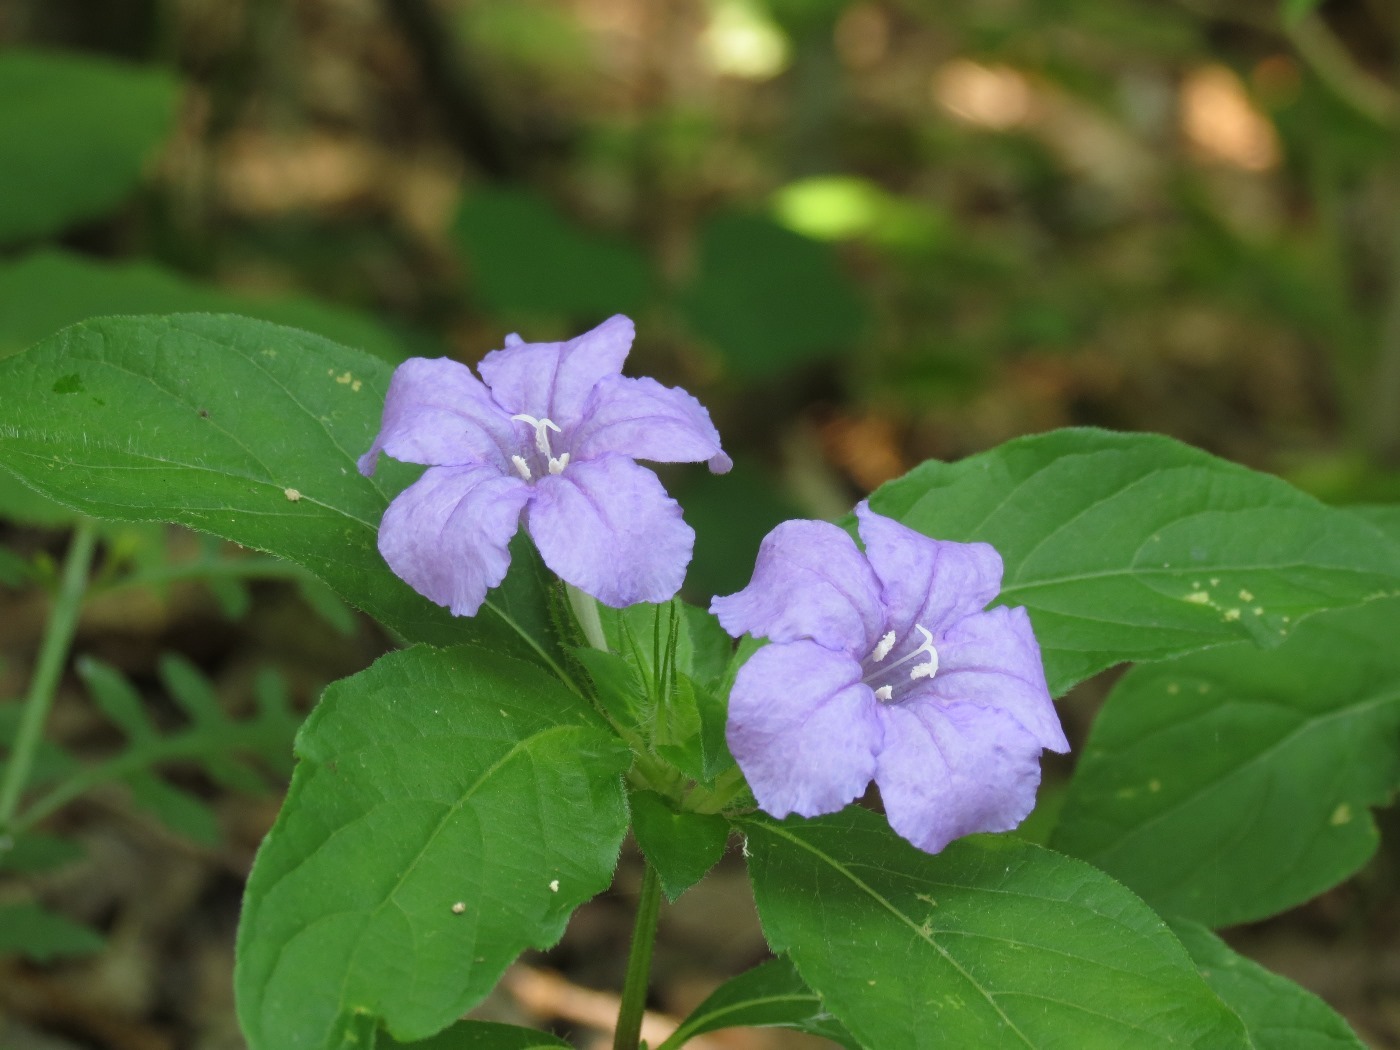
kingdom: Plantae
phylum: Tracheophyta
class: Magnoliopsida
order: Lamiales
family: Acanthaceae
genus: Ruellia
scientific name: Ruellia caroliniensis
